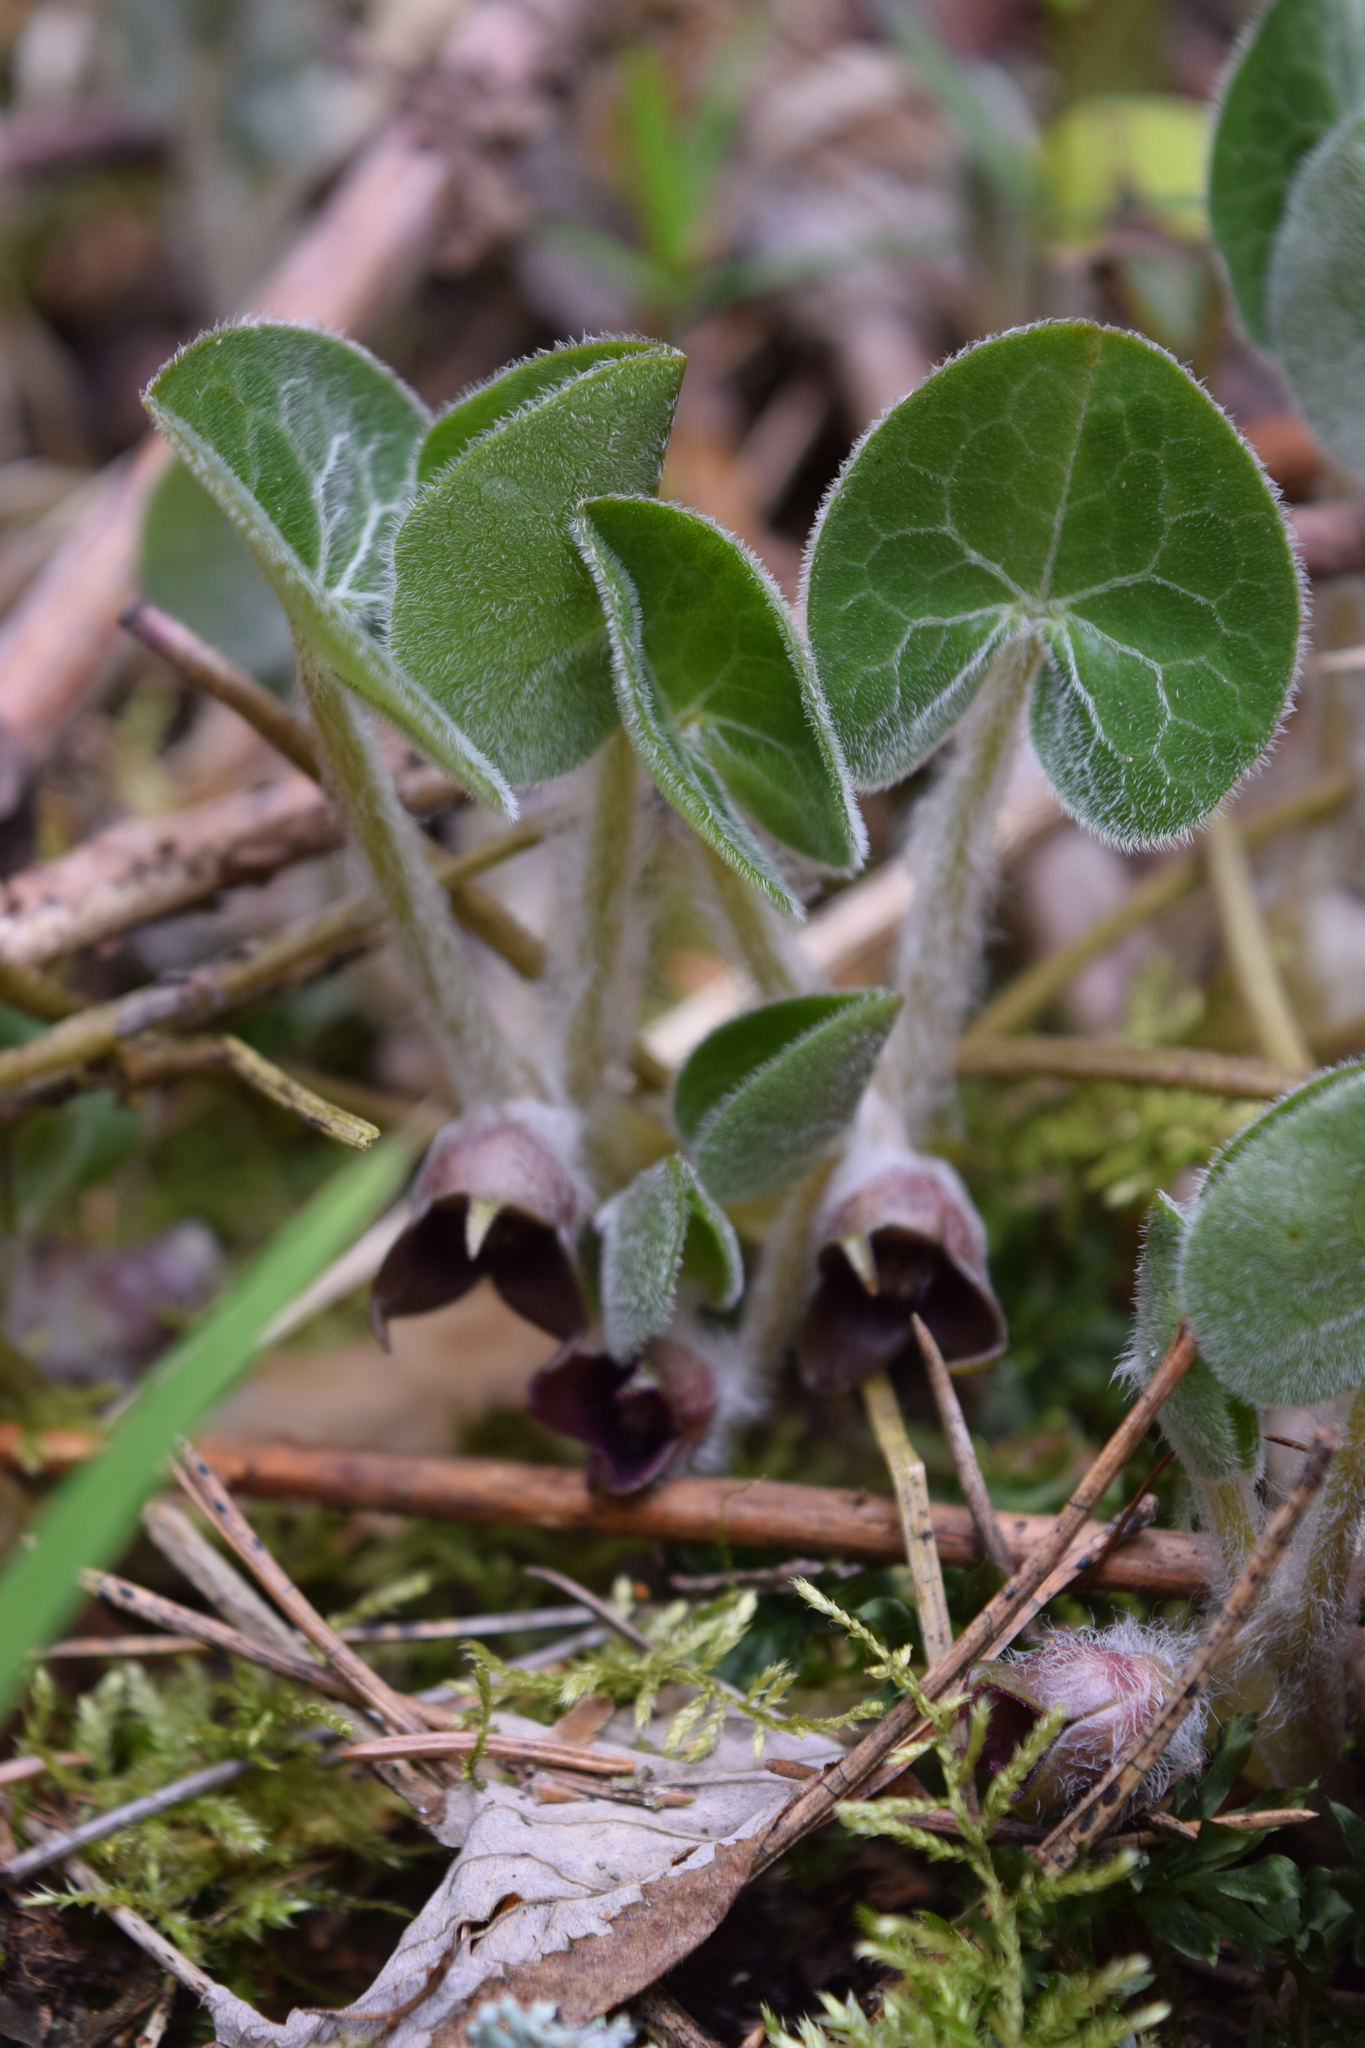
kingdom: Plantae
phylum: Tracheophyta
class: Magnoliopsida
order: Piperales
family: Aristolochiaceae
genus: Asarum
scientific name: Asarum europaeum
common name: Asarabacca
